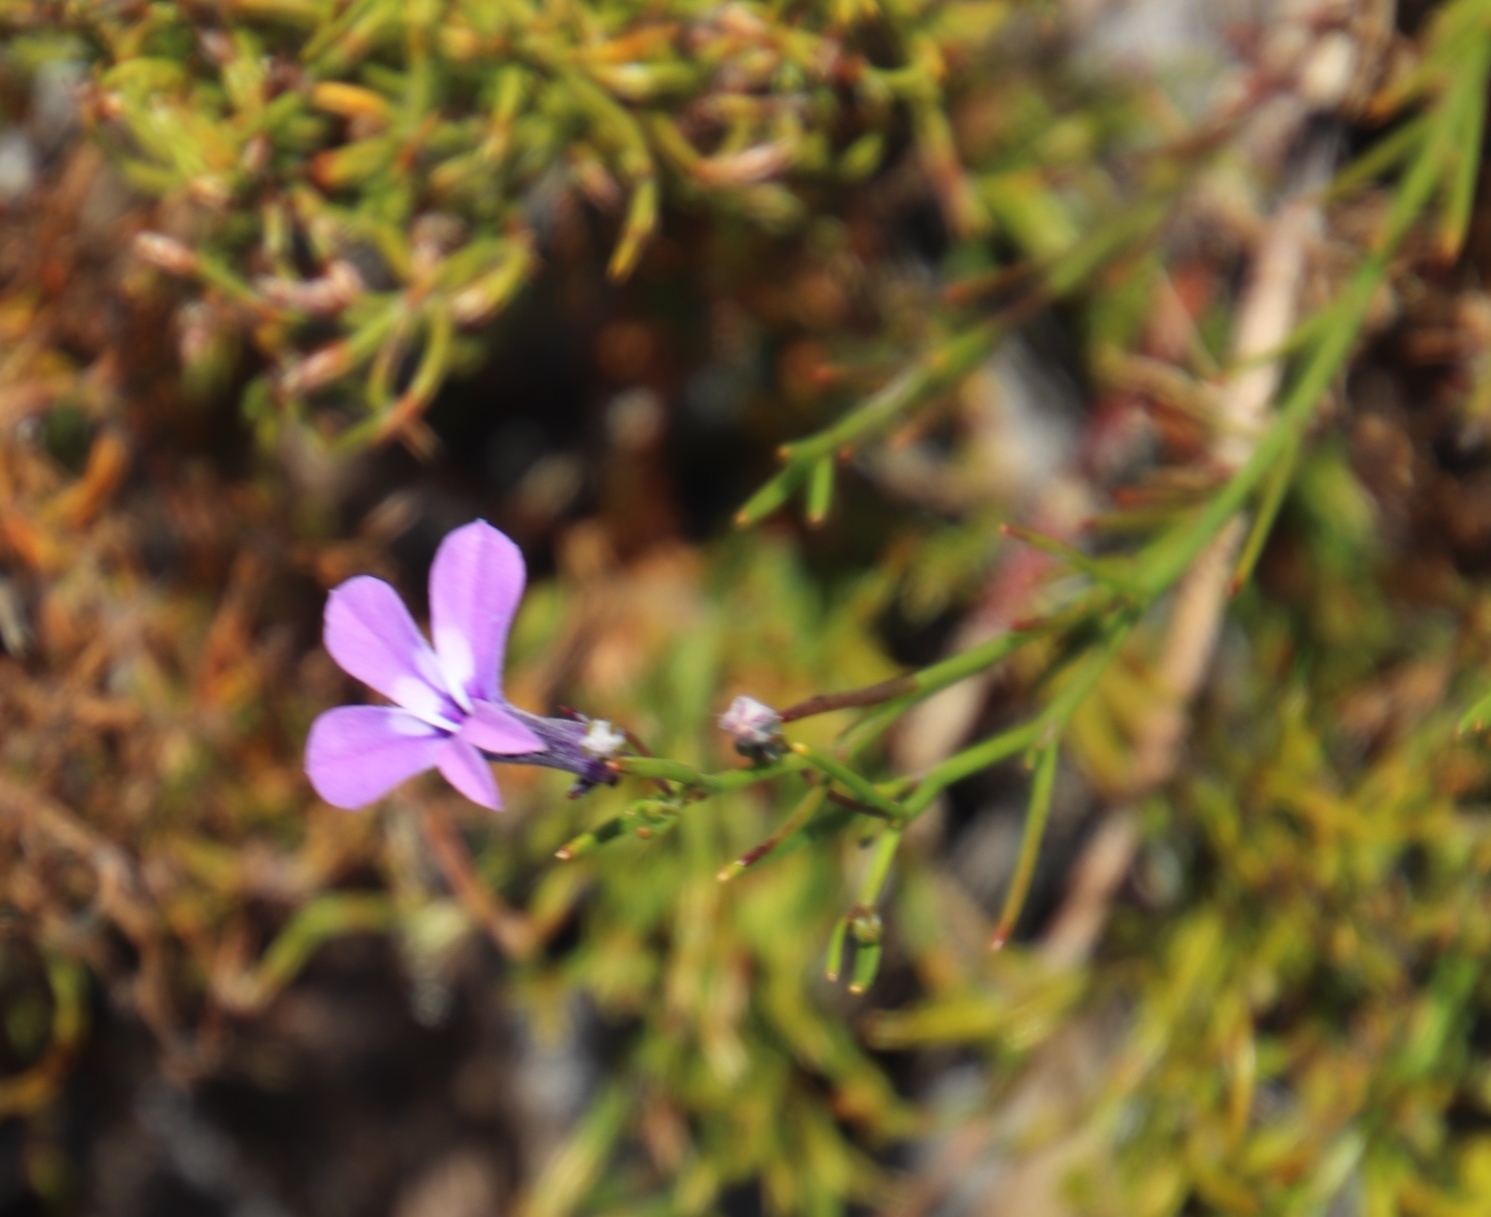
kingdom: Plantae
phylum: Tracheophyta
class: Magnoliopsida
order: Asterales
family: Campanulaceae
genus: Lobelia
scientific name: Lobelia setacea
